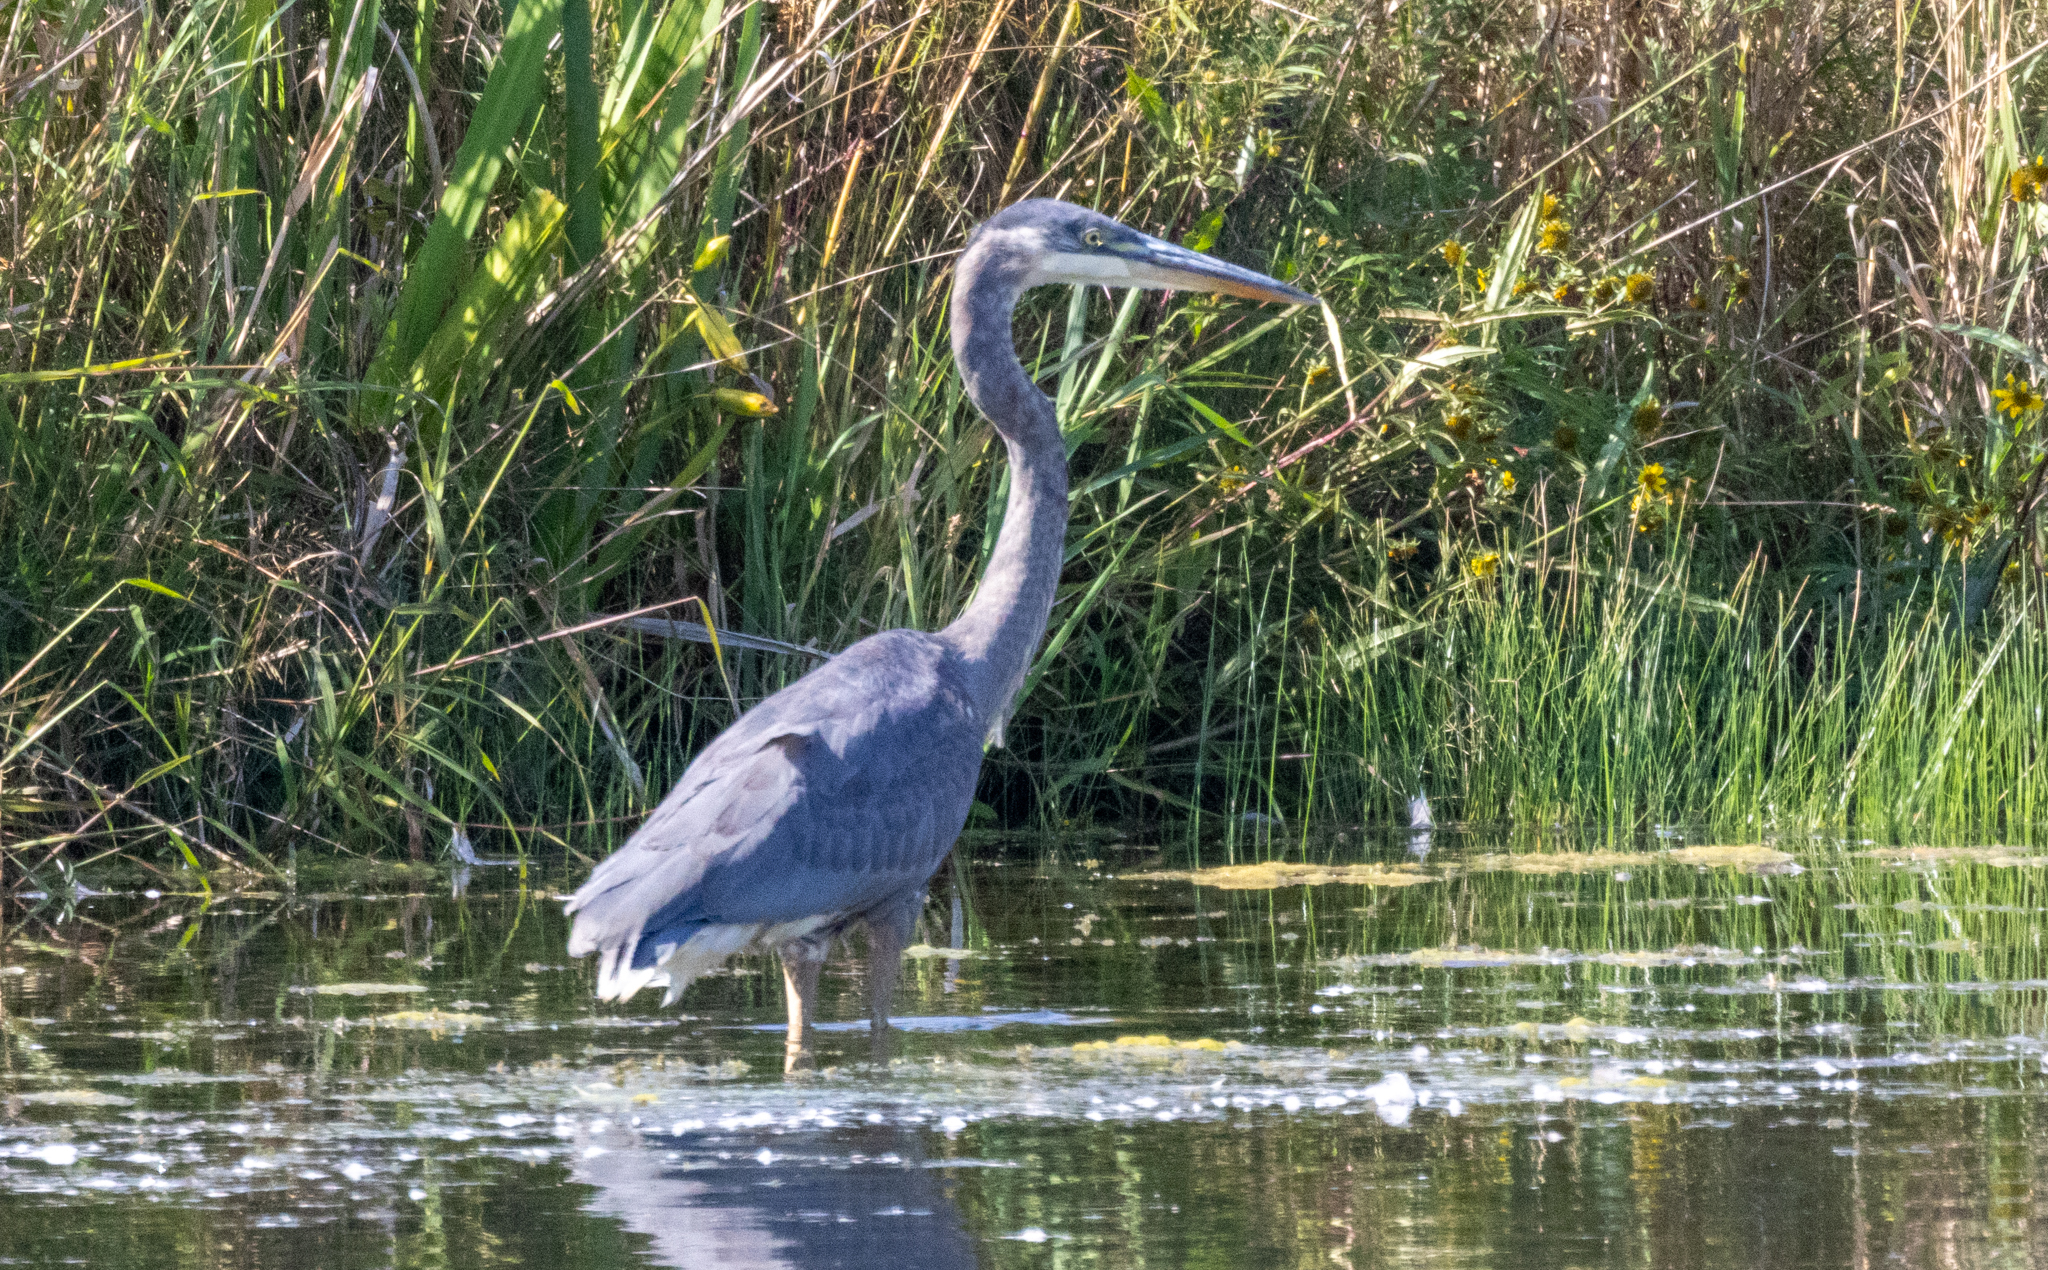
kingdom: Animalia
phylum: Chordata
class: Aves
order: Pelecaniformes
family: Ardeidae
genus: Ardea
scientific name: Ardea herodias
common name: Great blue heron
